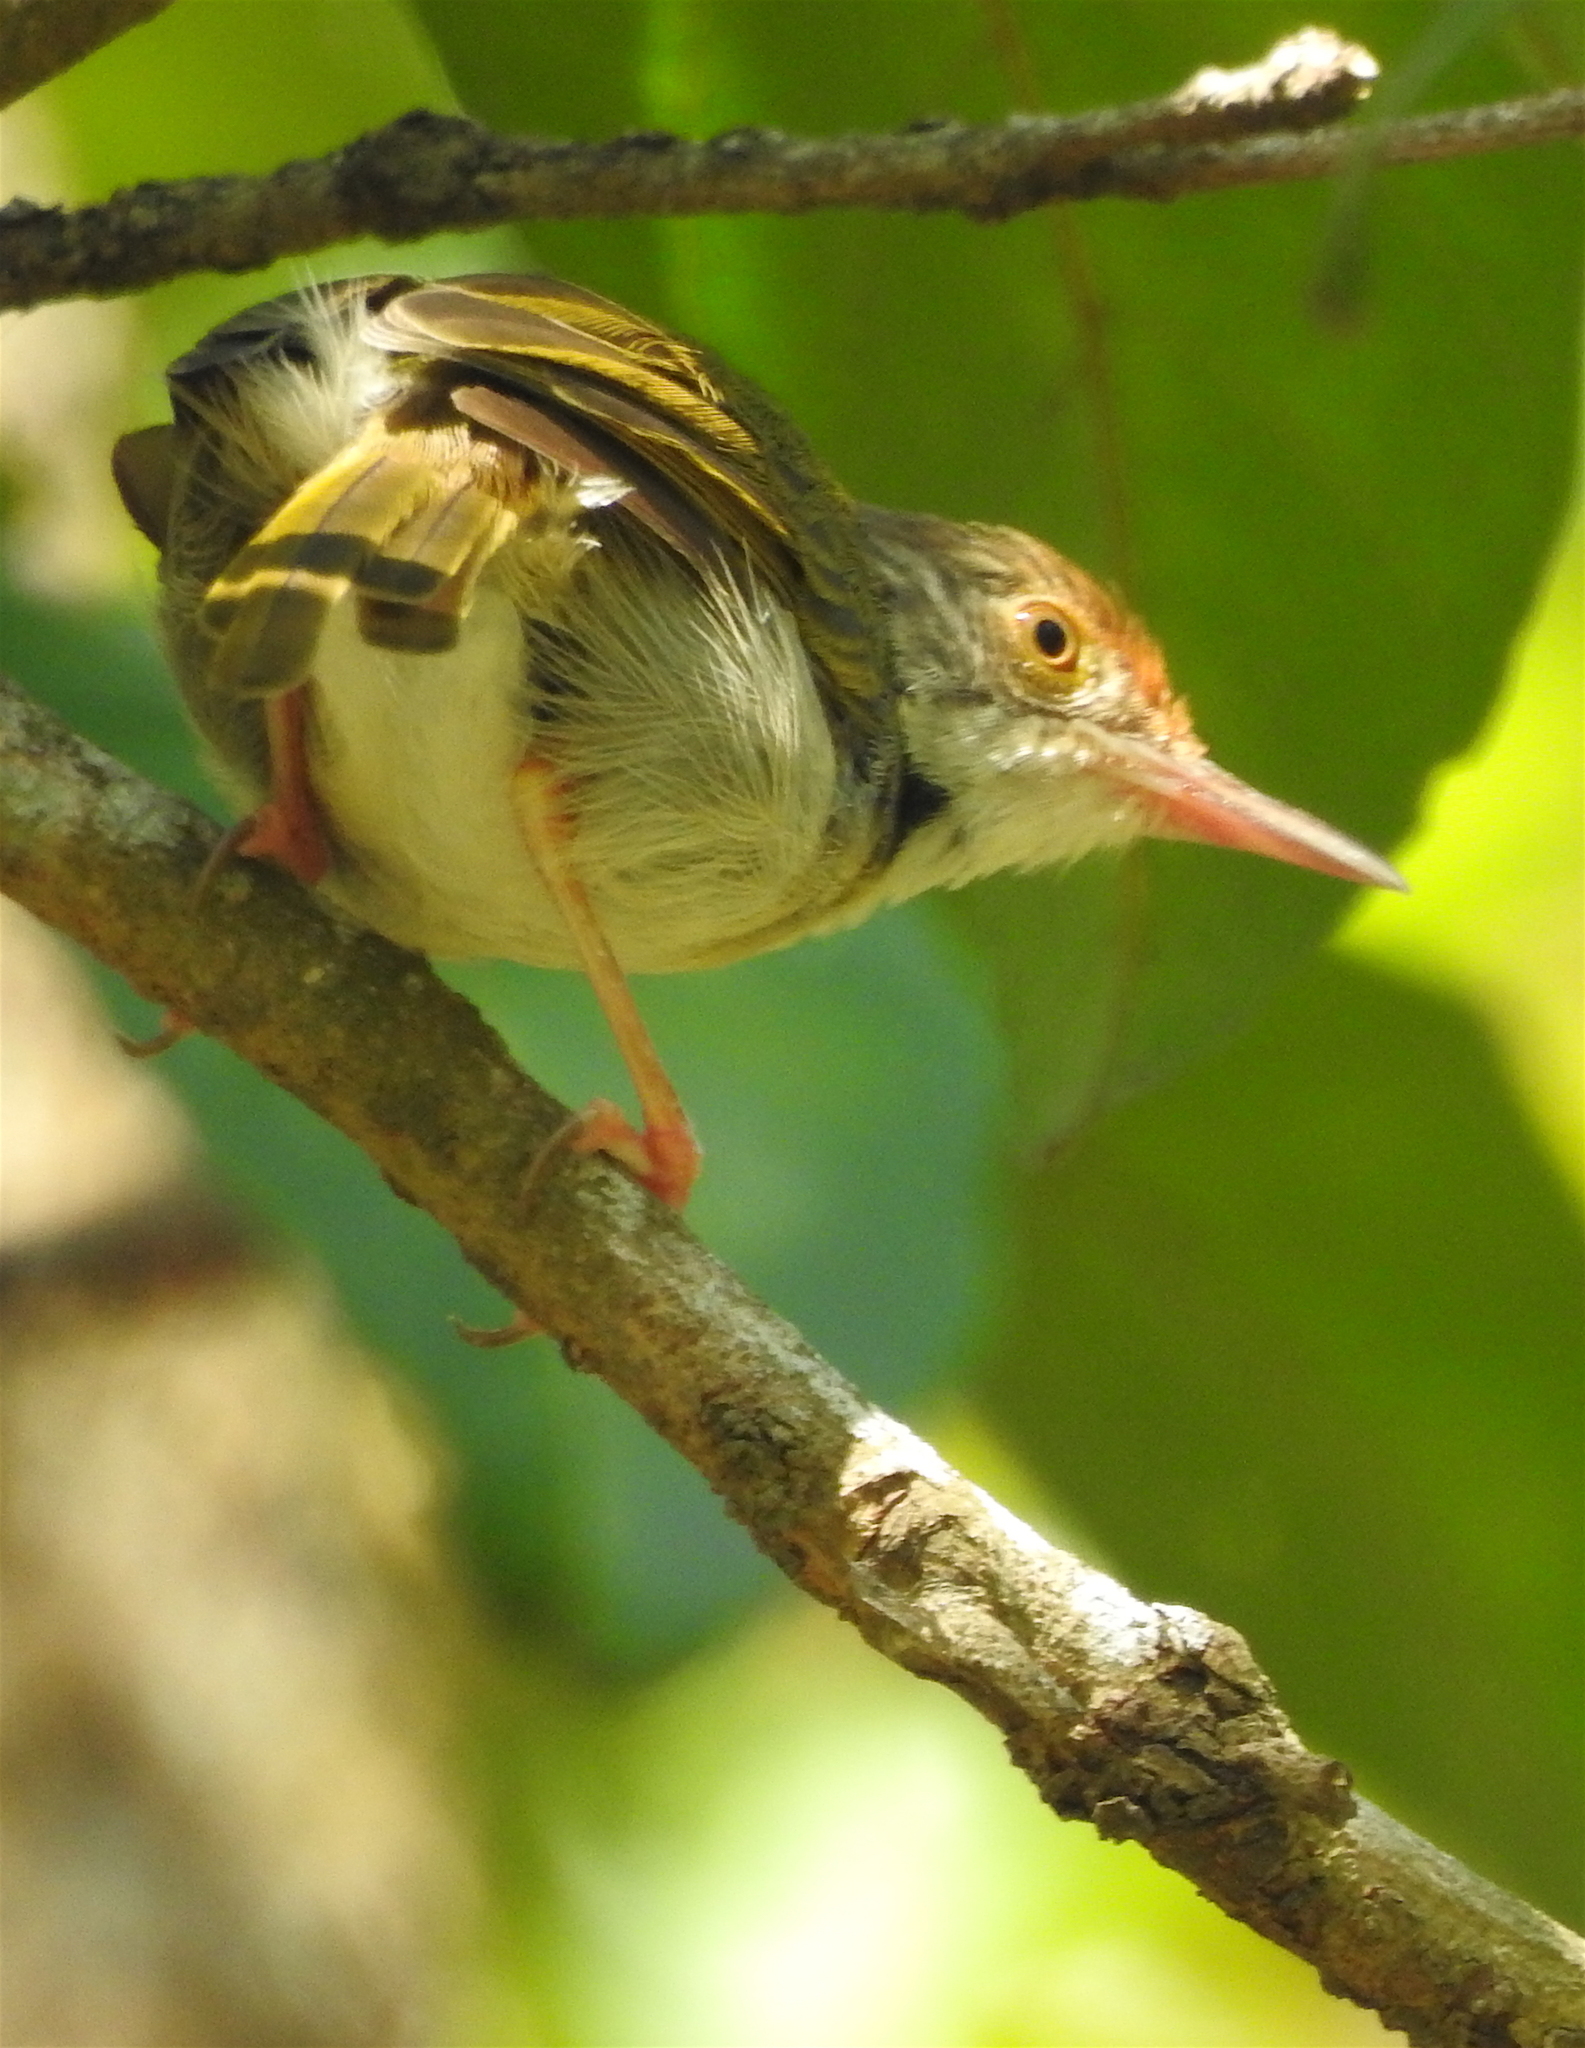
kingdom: Animalia
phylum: Chordata
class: Aves
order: Passeriformes
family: Cisticolidae
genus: Orthotomus
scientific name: Orthotomus sutorius
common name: Common tailorbird
